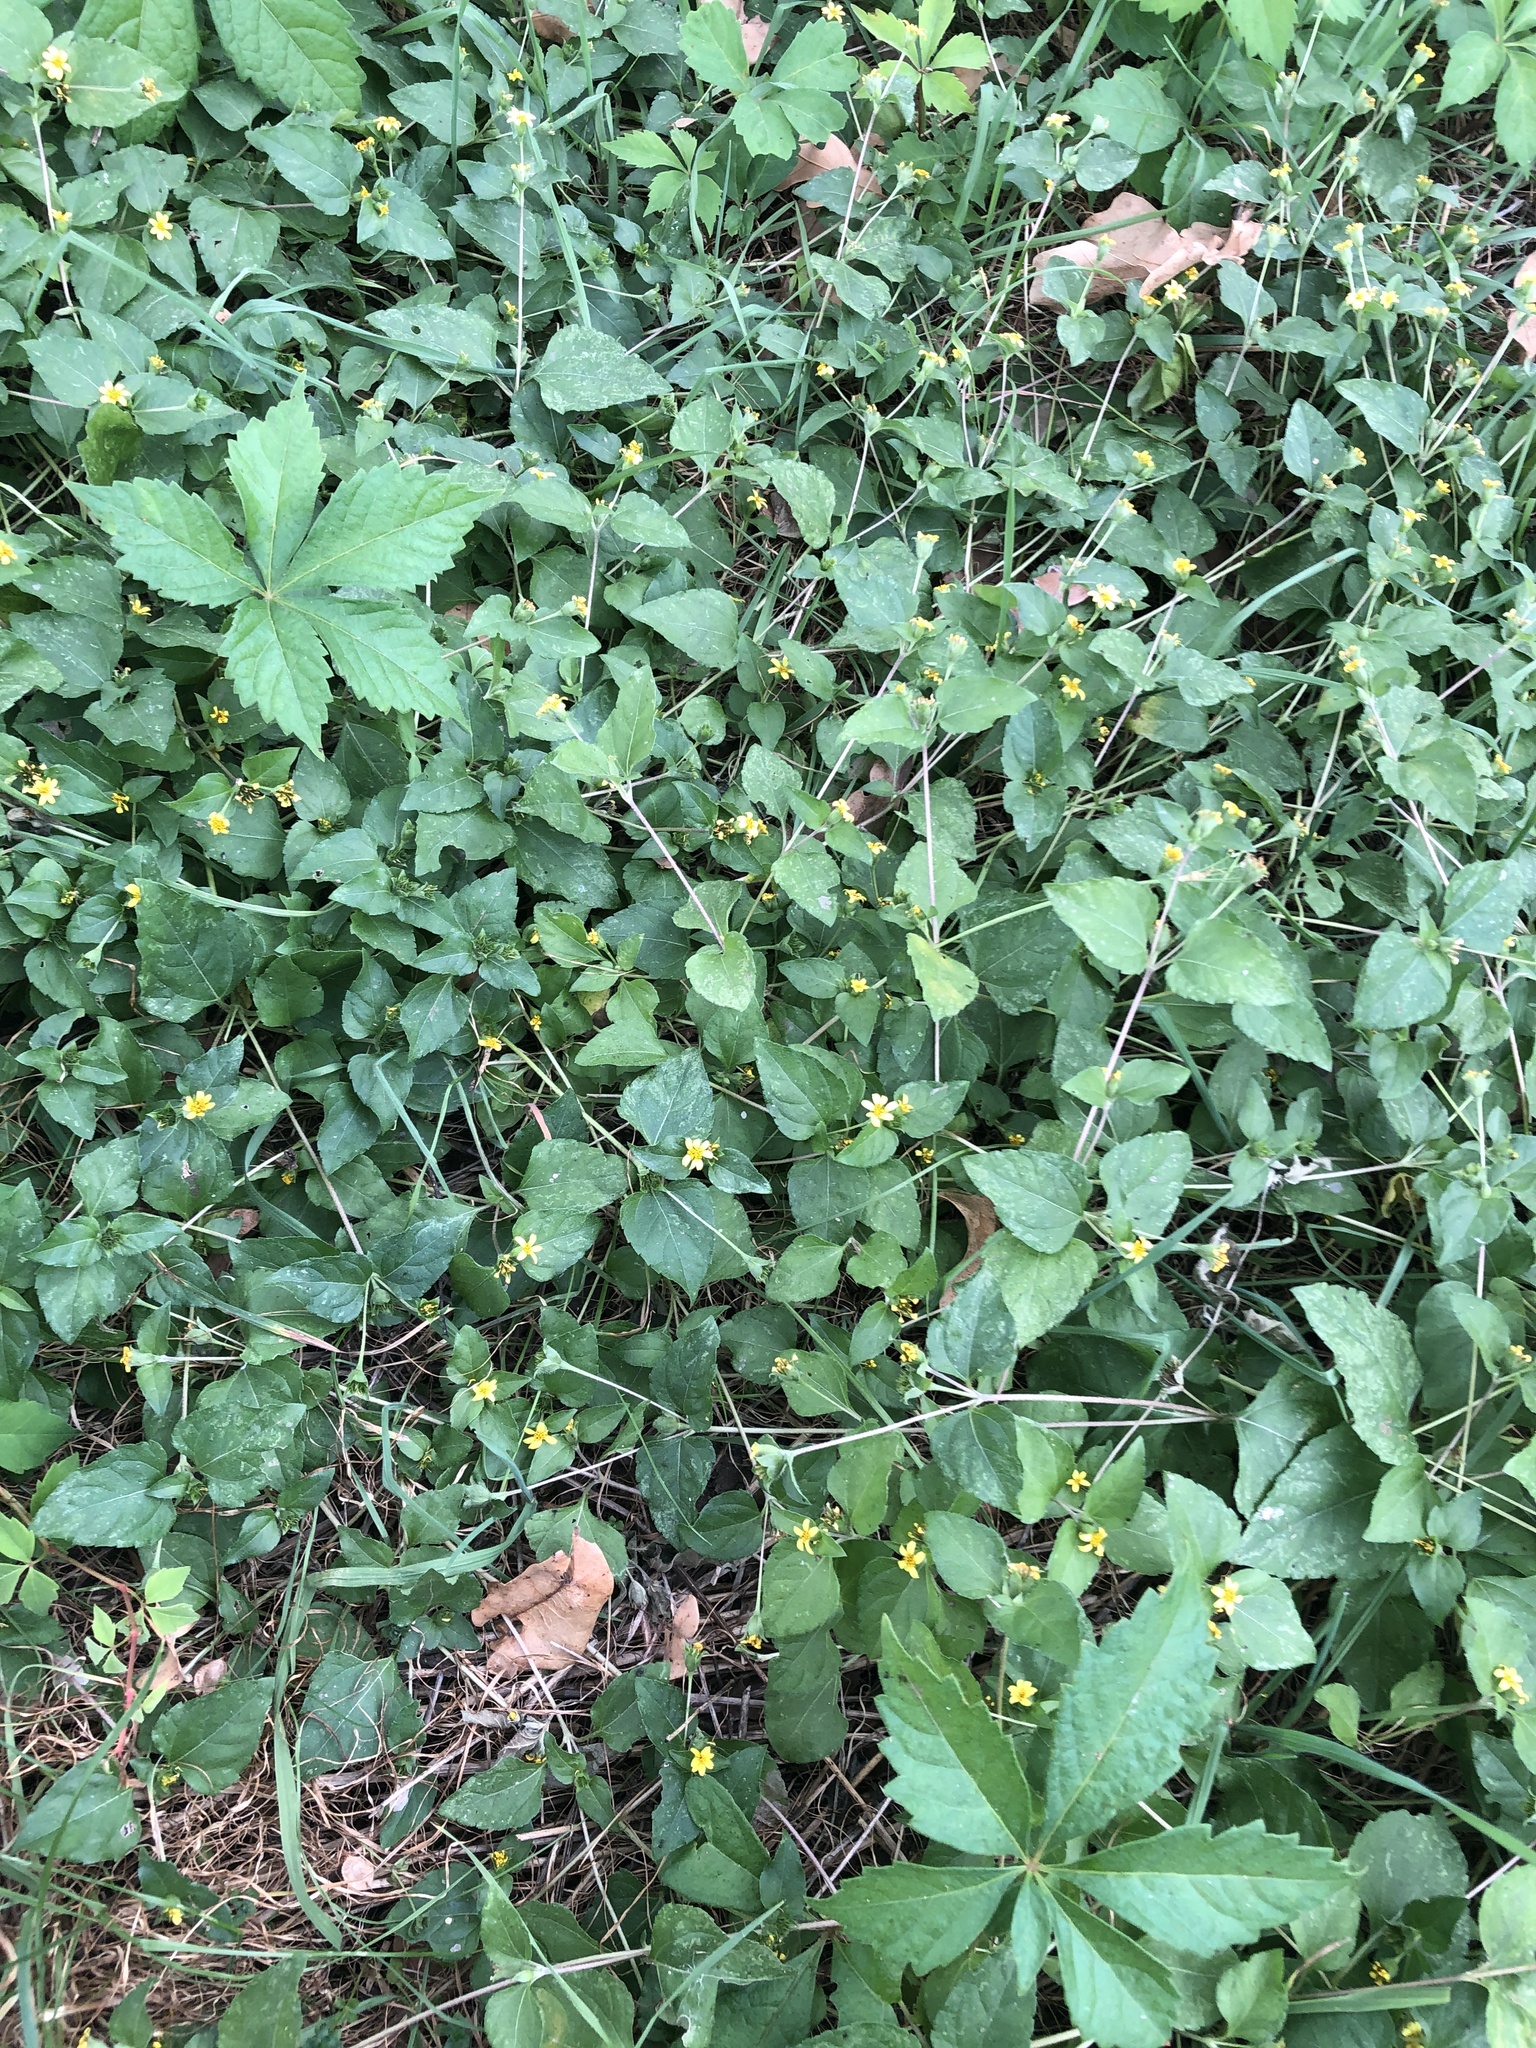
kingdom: Plantae
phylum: Tracheophyta
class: Magnoliopsida
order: Asterales
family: Asteraceae
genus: Calyptocarpus
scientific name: Calyptocarpus vialis
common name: Straggler daisy
